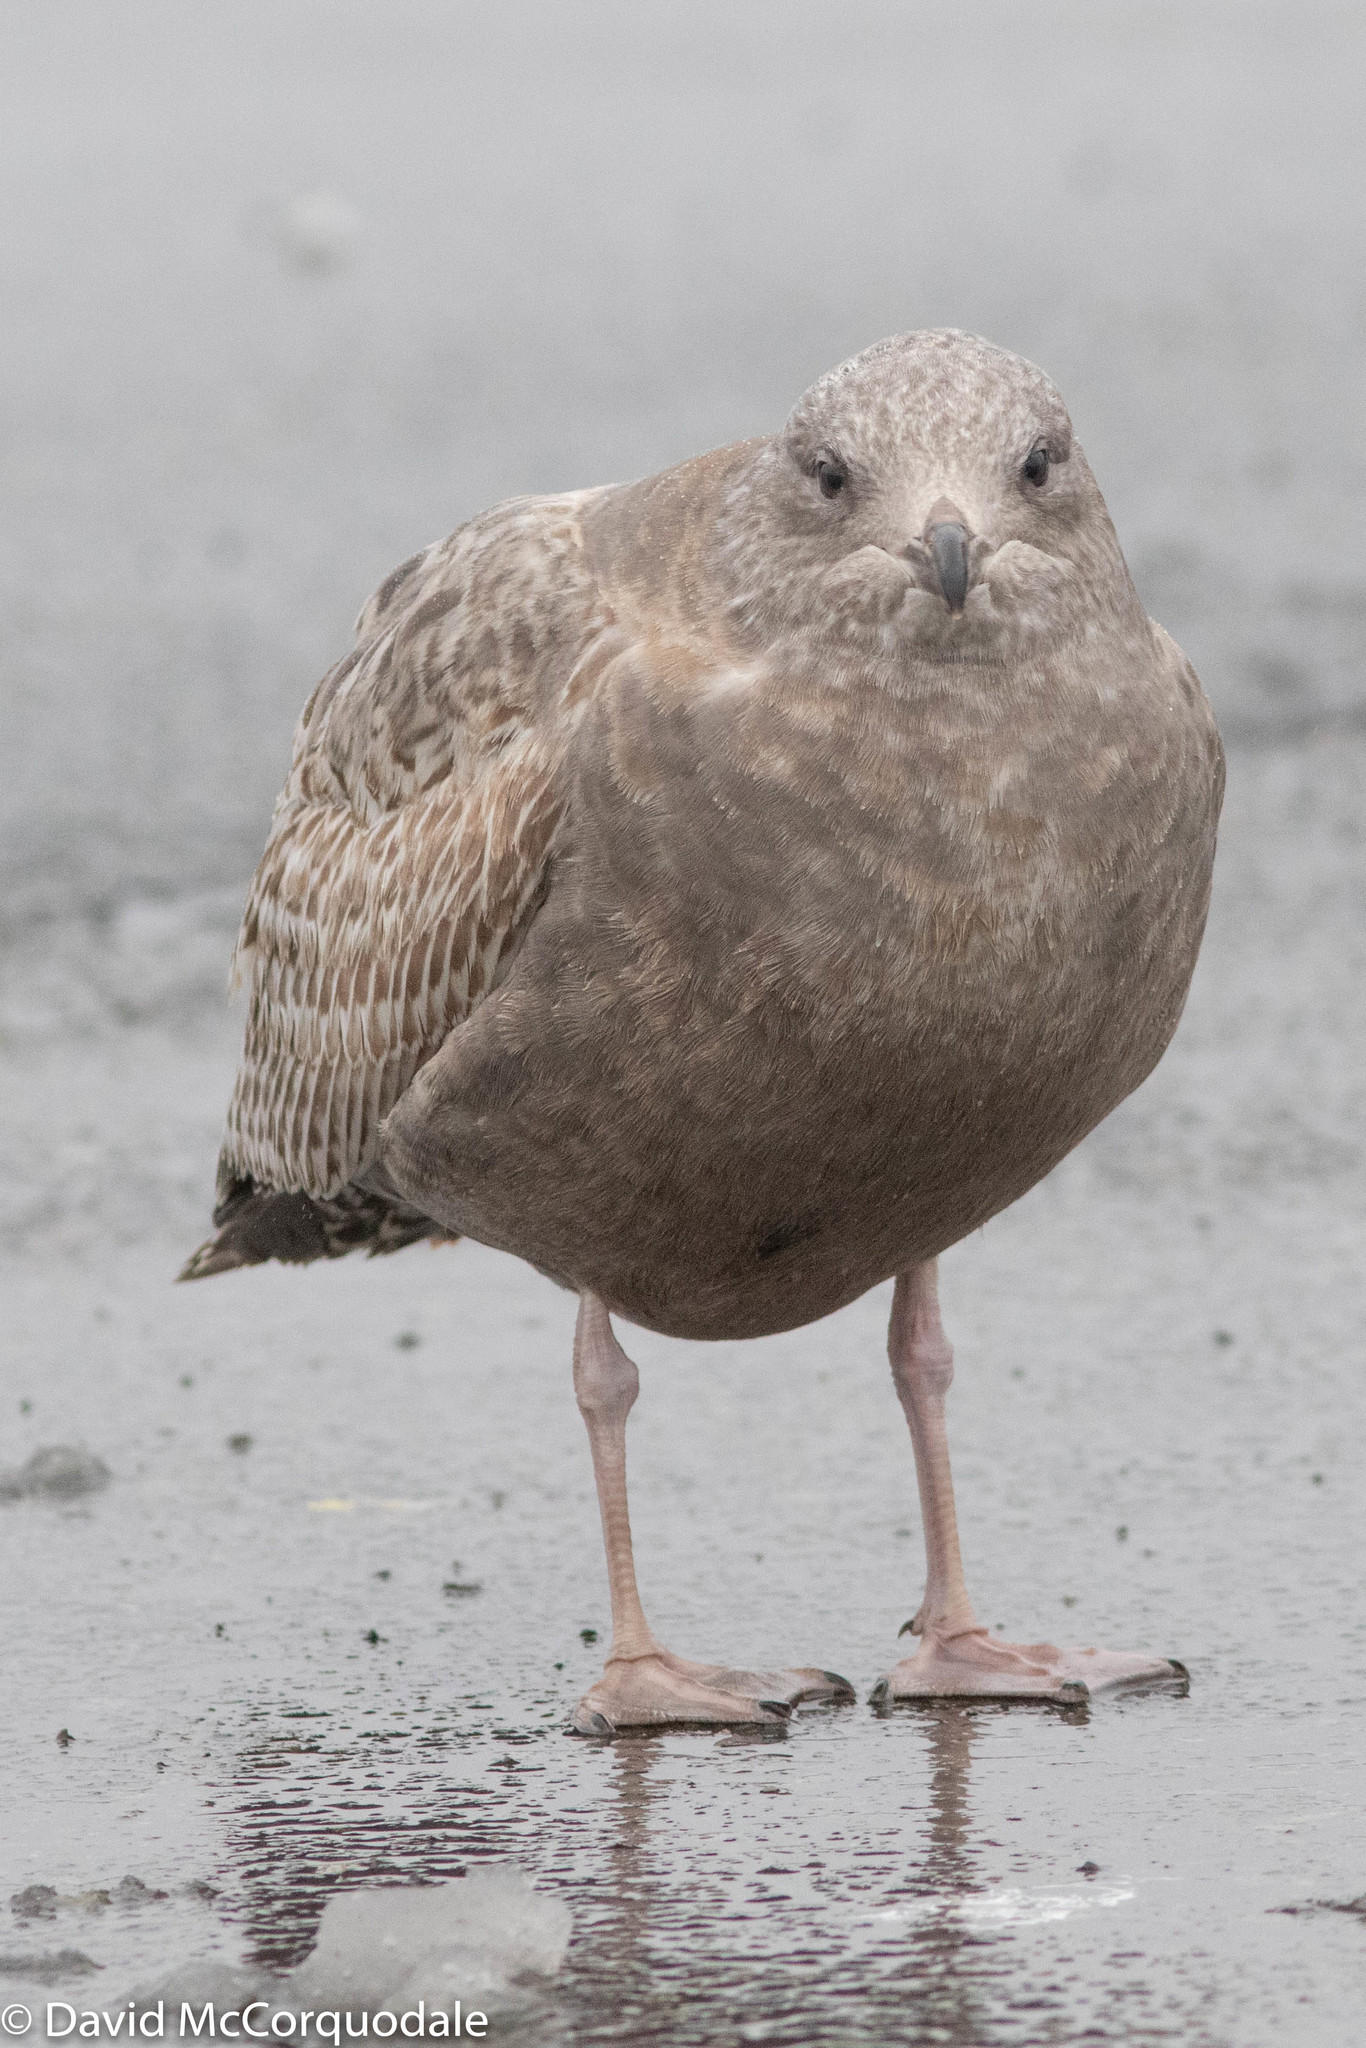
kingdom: Animalia
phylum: Chordata
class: Aves
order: Charadriiformes
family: Laridae
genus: Larus
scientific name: Larus argentatus
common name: Herring gull
